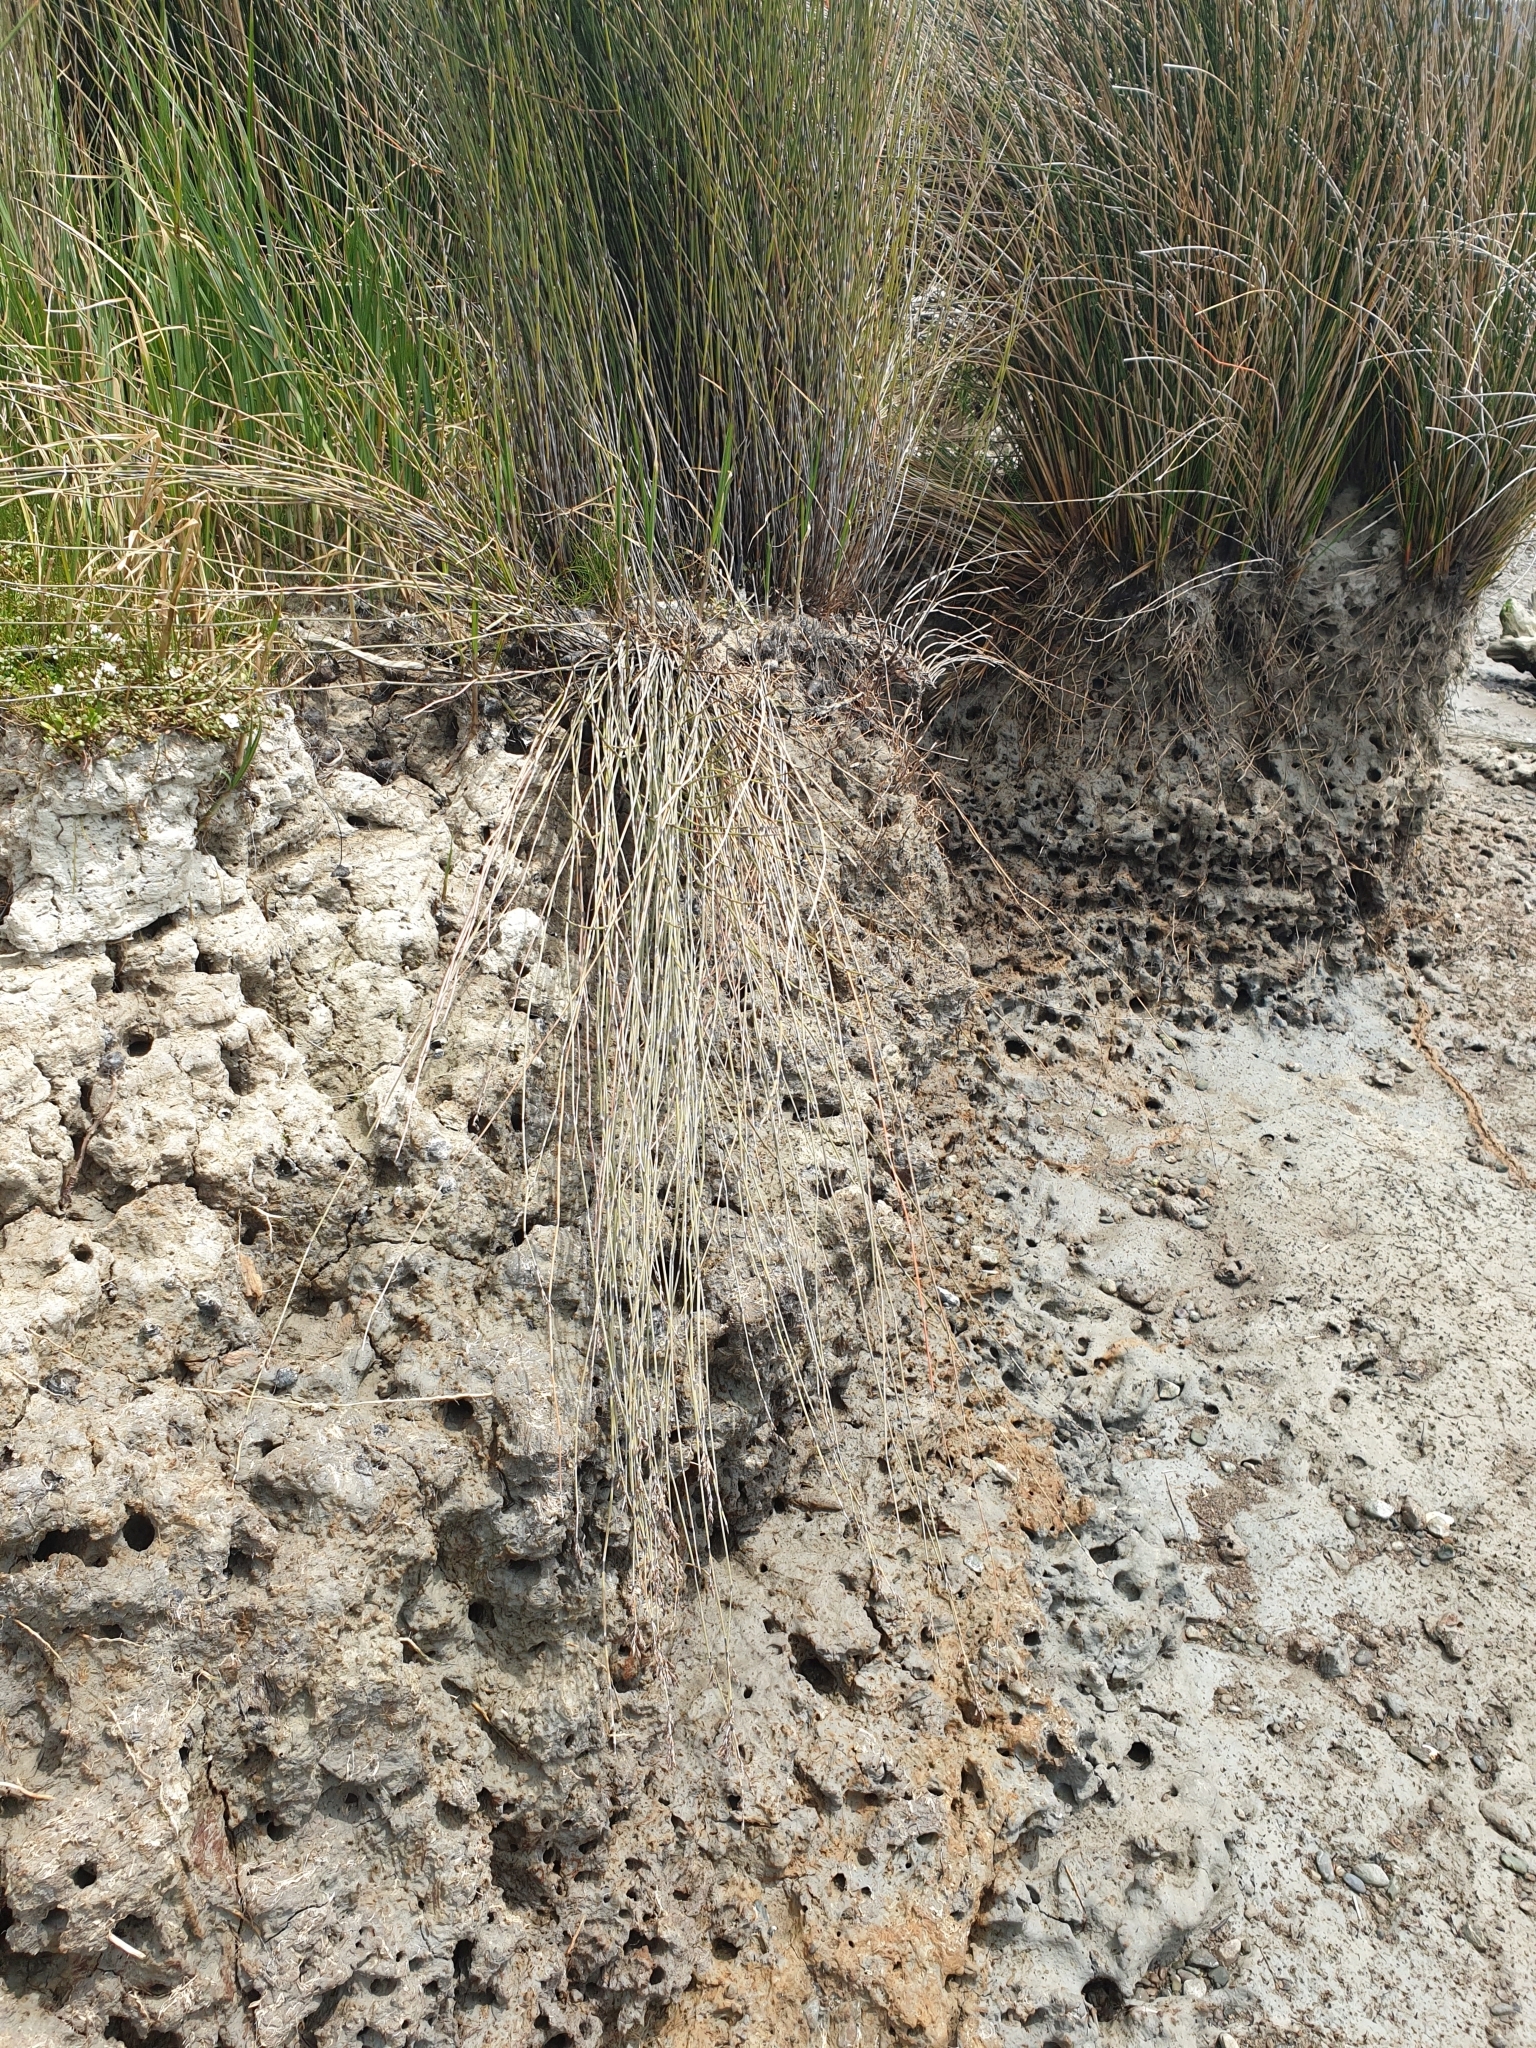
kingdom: Plantae
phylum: Tracheophyta
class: Magnoliopsida
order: Ericales
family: Primulaceae
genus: Samolus
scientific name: Samolus repens
